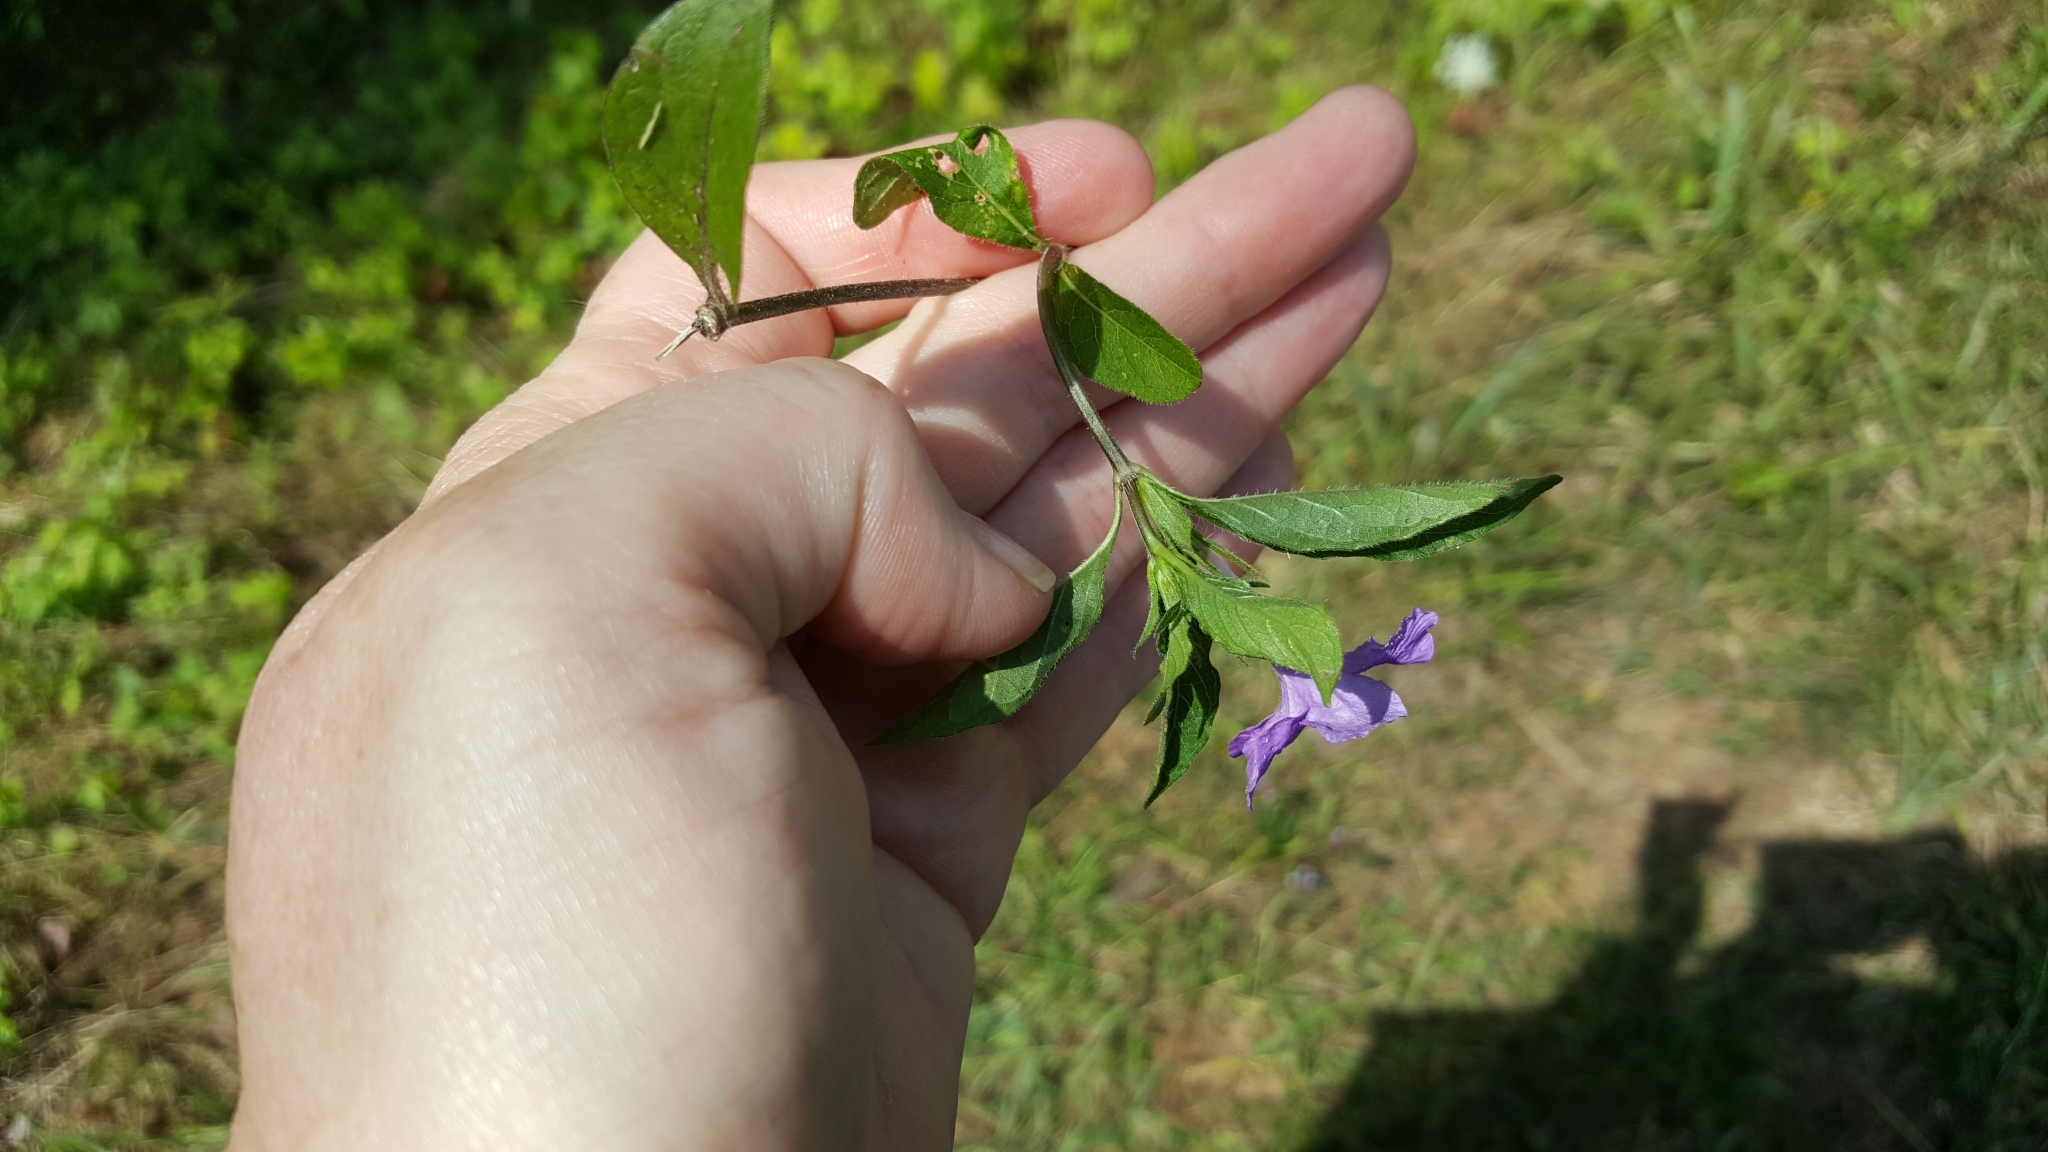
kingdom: Plantae
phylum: Tracheophyta
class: Magnoliopsida
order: Lamiales
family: Acanthaceae
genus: Ruellia
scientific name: Ruellia caroliniensis
